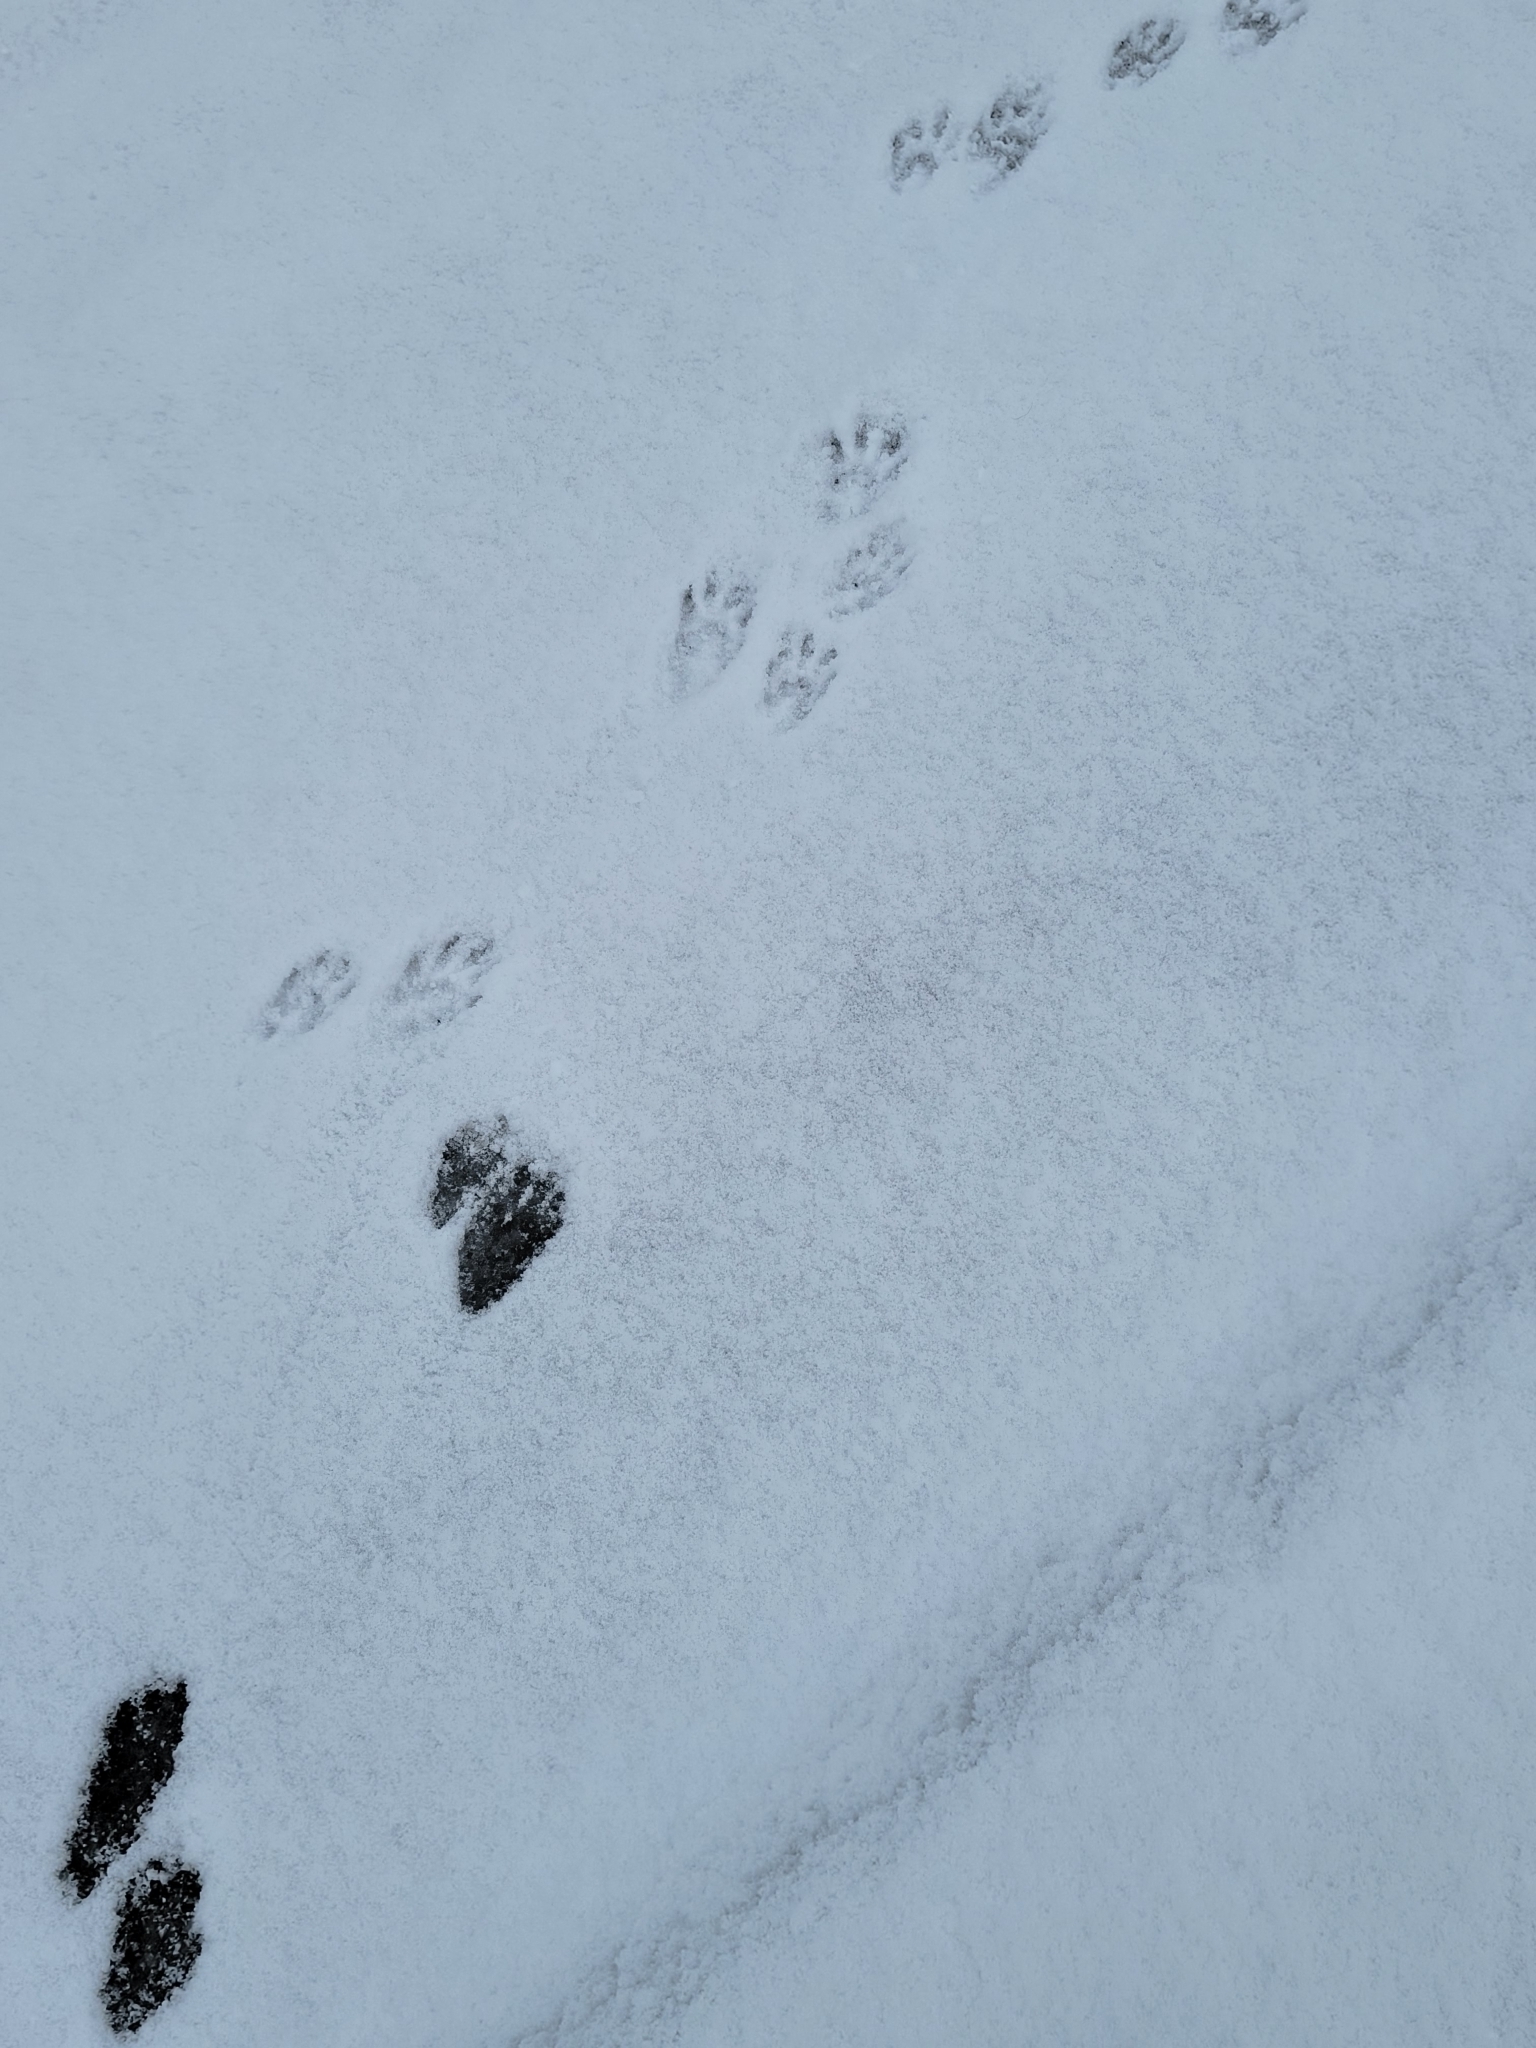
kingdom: Animalia
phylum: Chordata
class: Mammalia
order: Carnivora
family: Procyonidae
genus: Procyon
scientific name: Procyon lotor
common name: Raccoon
